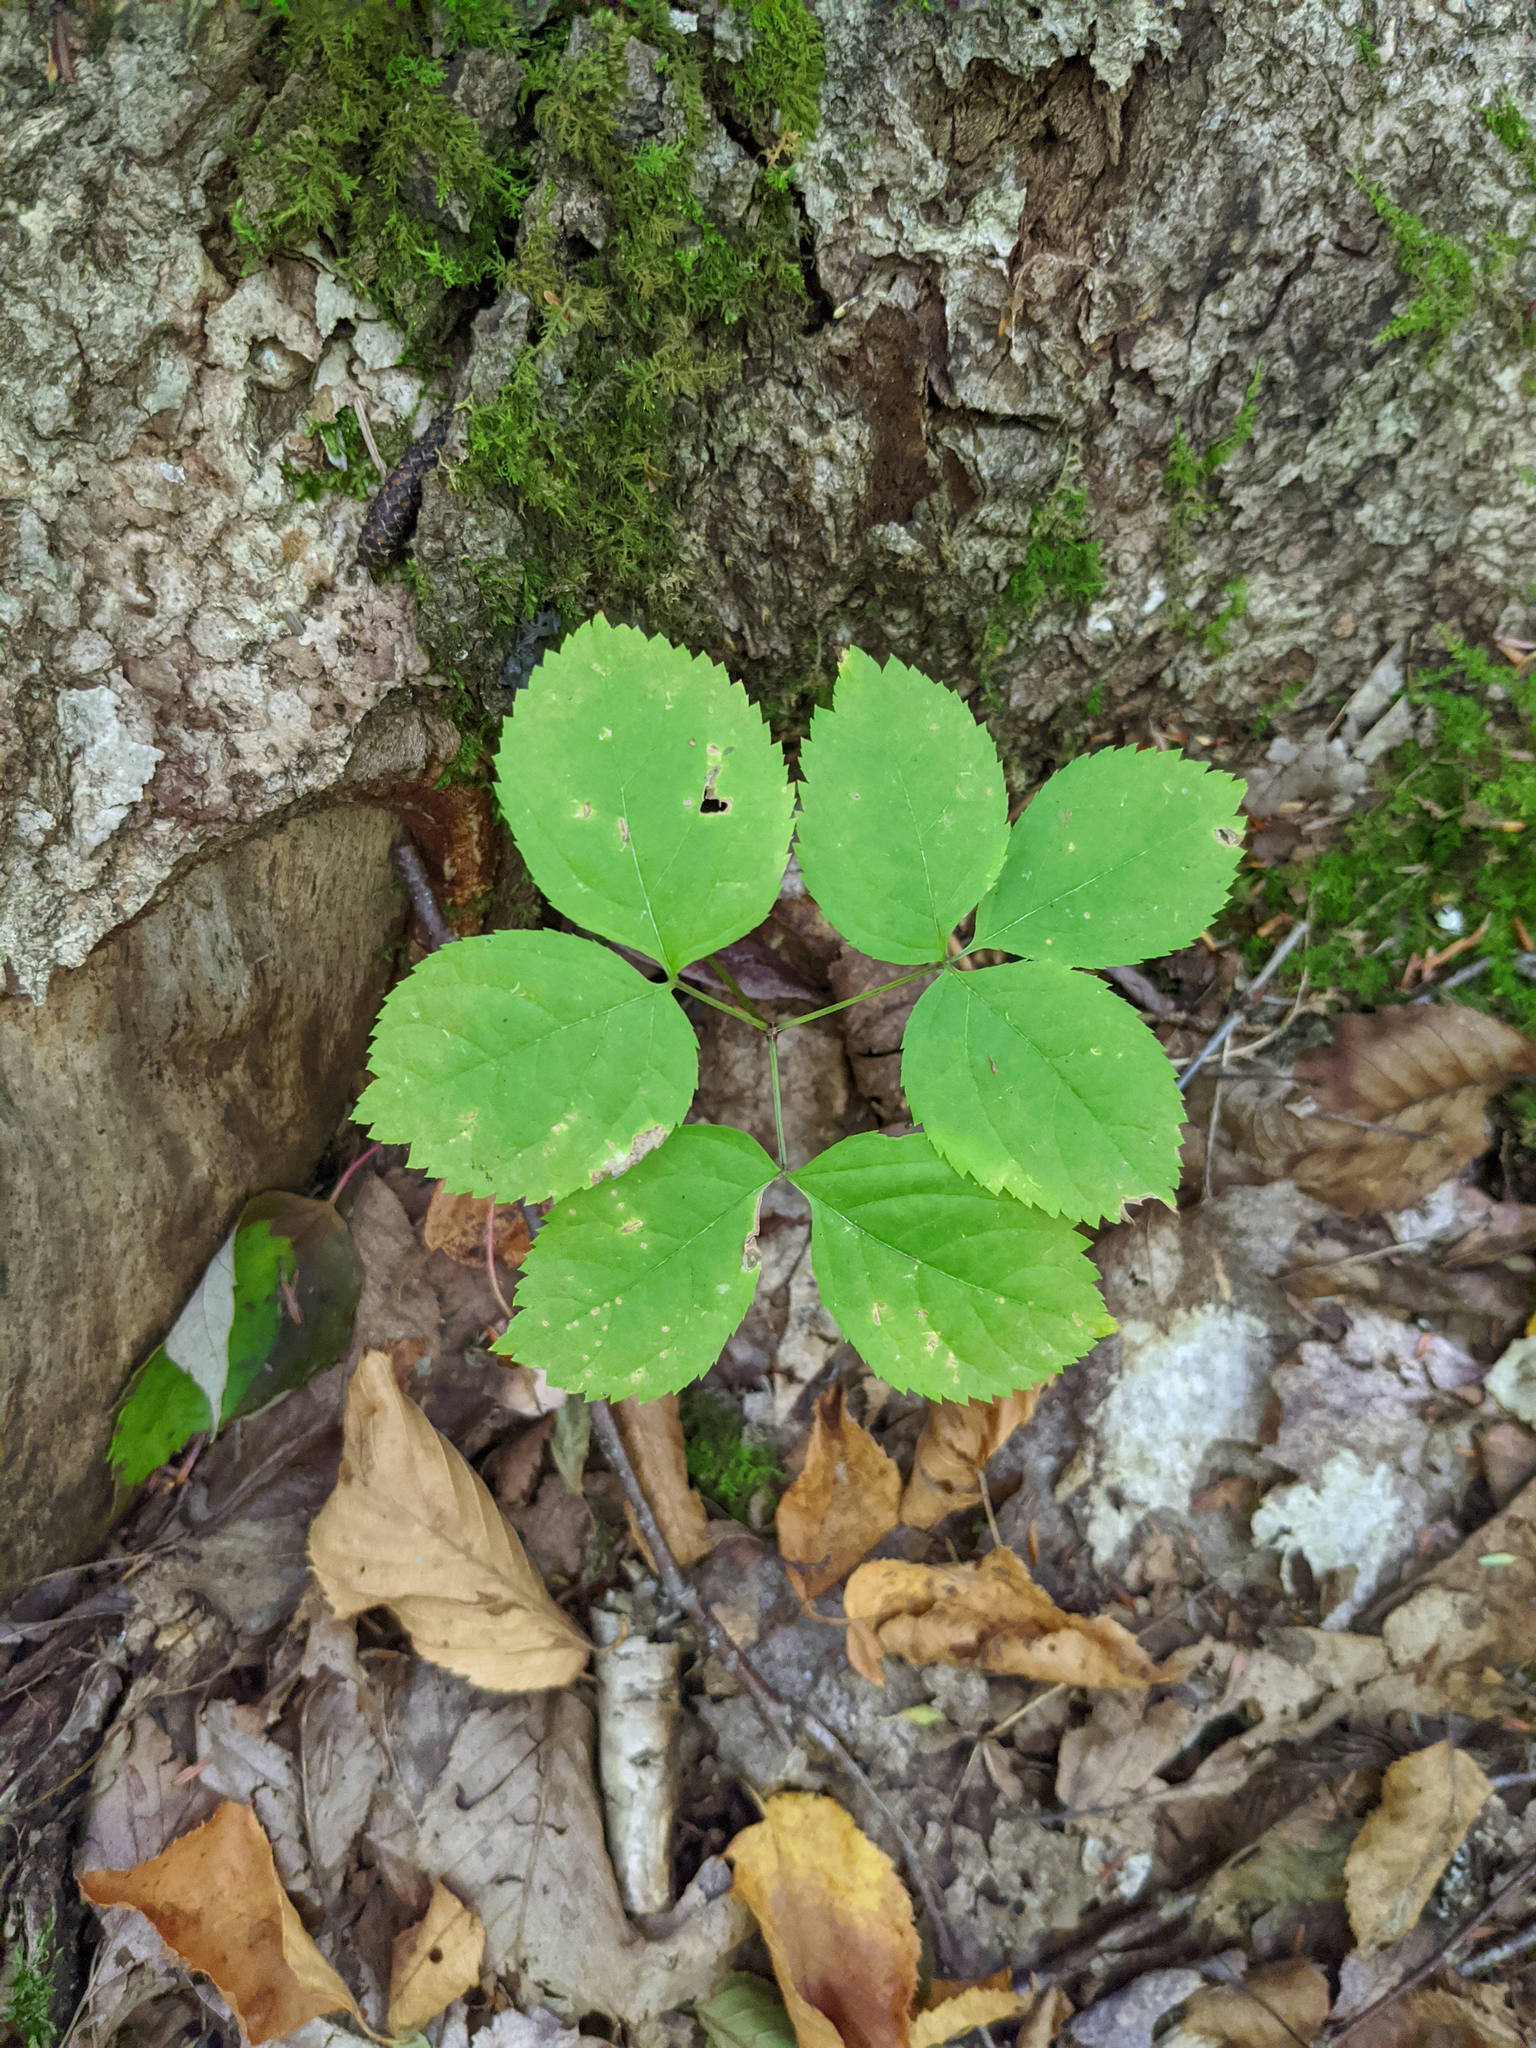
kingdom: Plantae
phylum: Tracheophyta
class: Magnoliopsida
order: Apiales
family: Araliaceae
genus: Aralia
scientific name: Aralia nudicaulis
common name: Wild sarsaparilla
